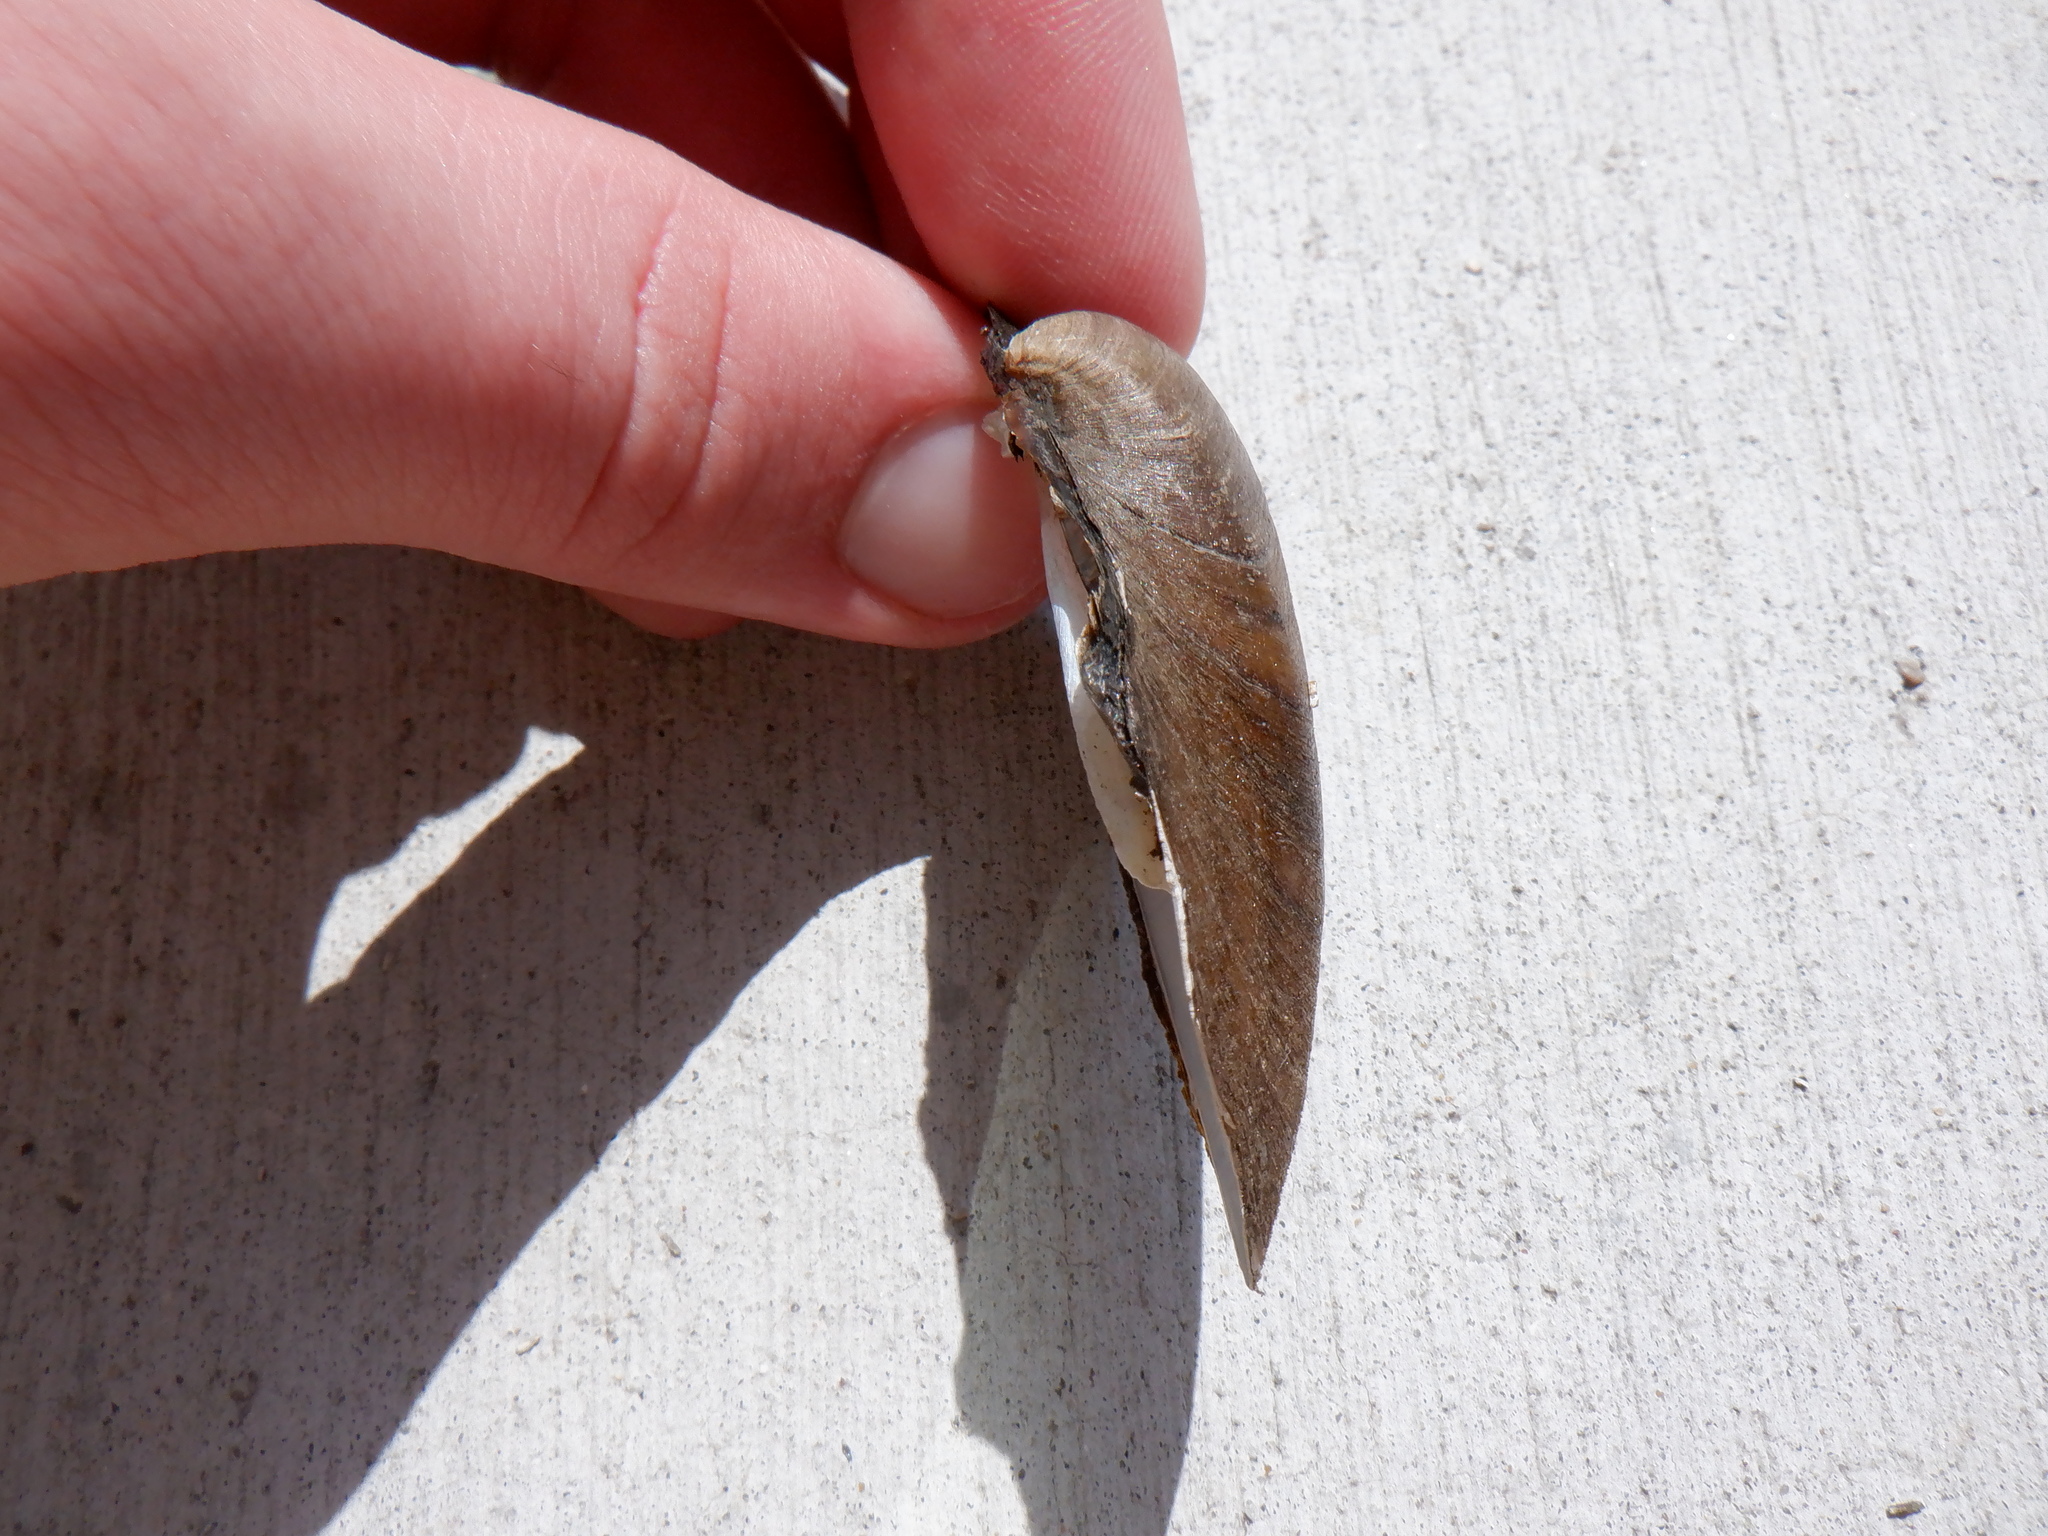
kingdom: Animalia
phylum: Mollusca
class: Bivalvia
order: Unionida
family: Unionidae
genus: Fusconaia
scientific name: Fusconaia flava
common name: Wabash pigtoe
